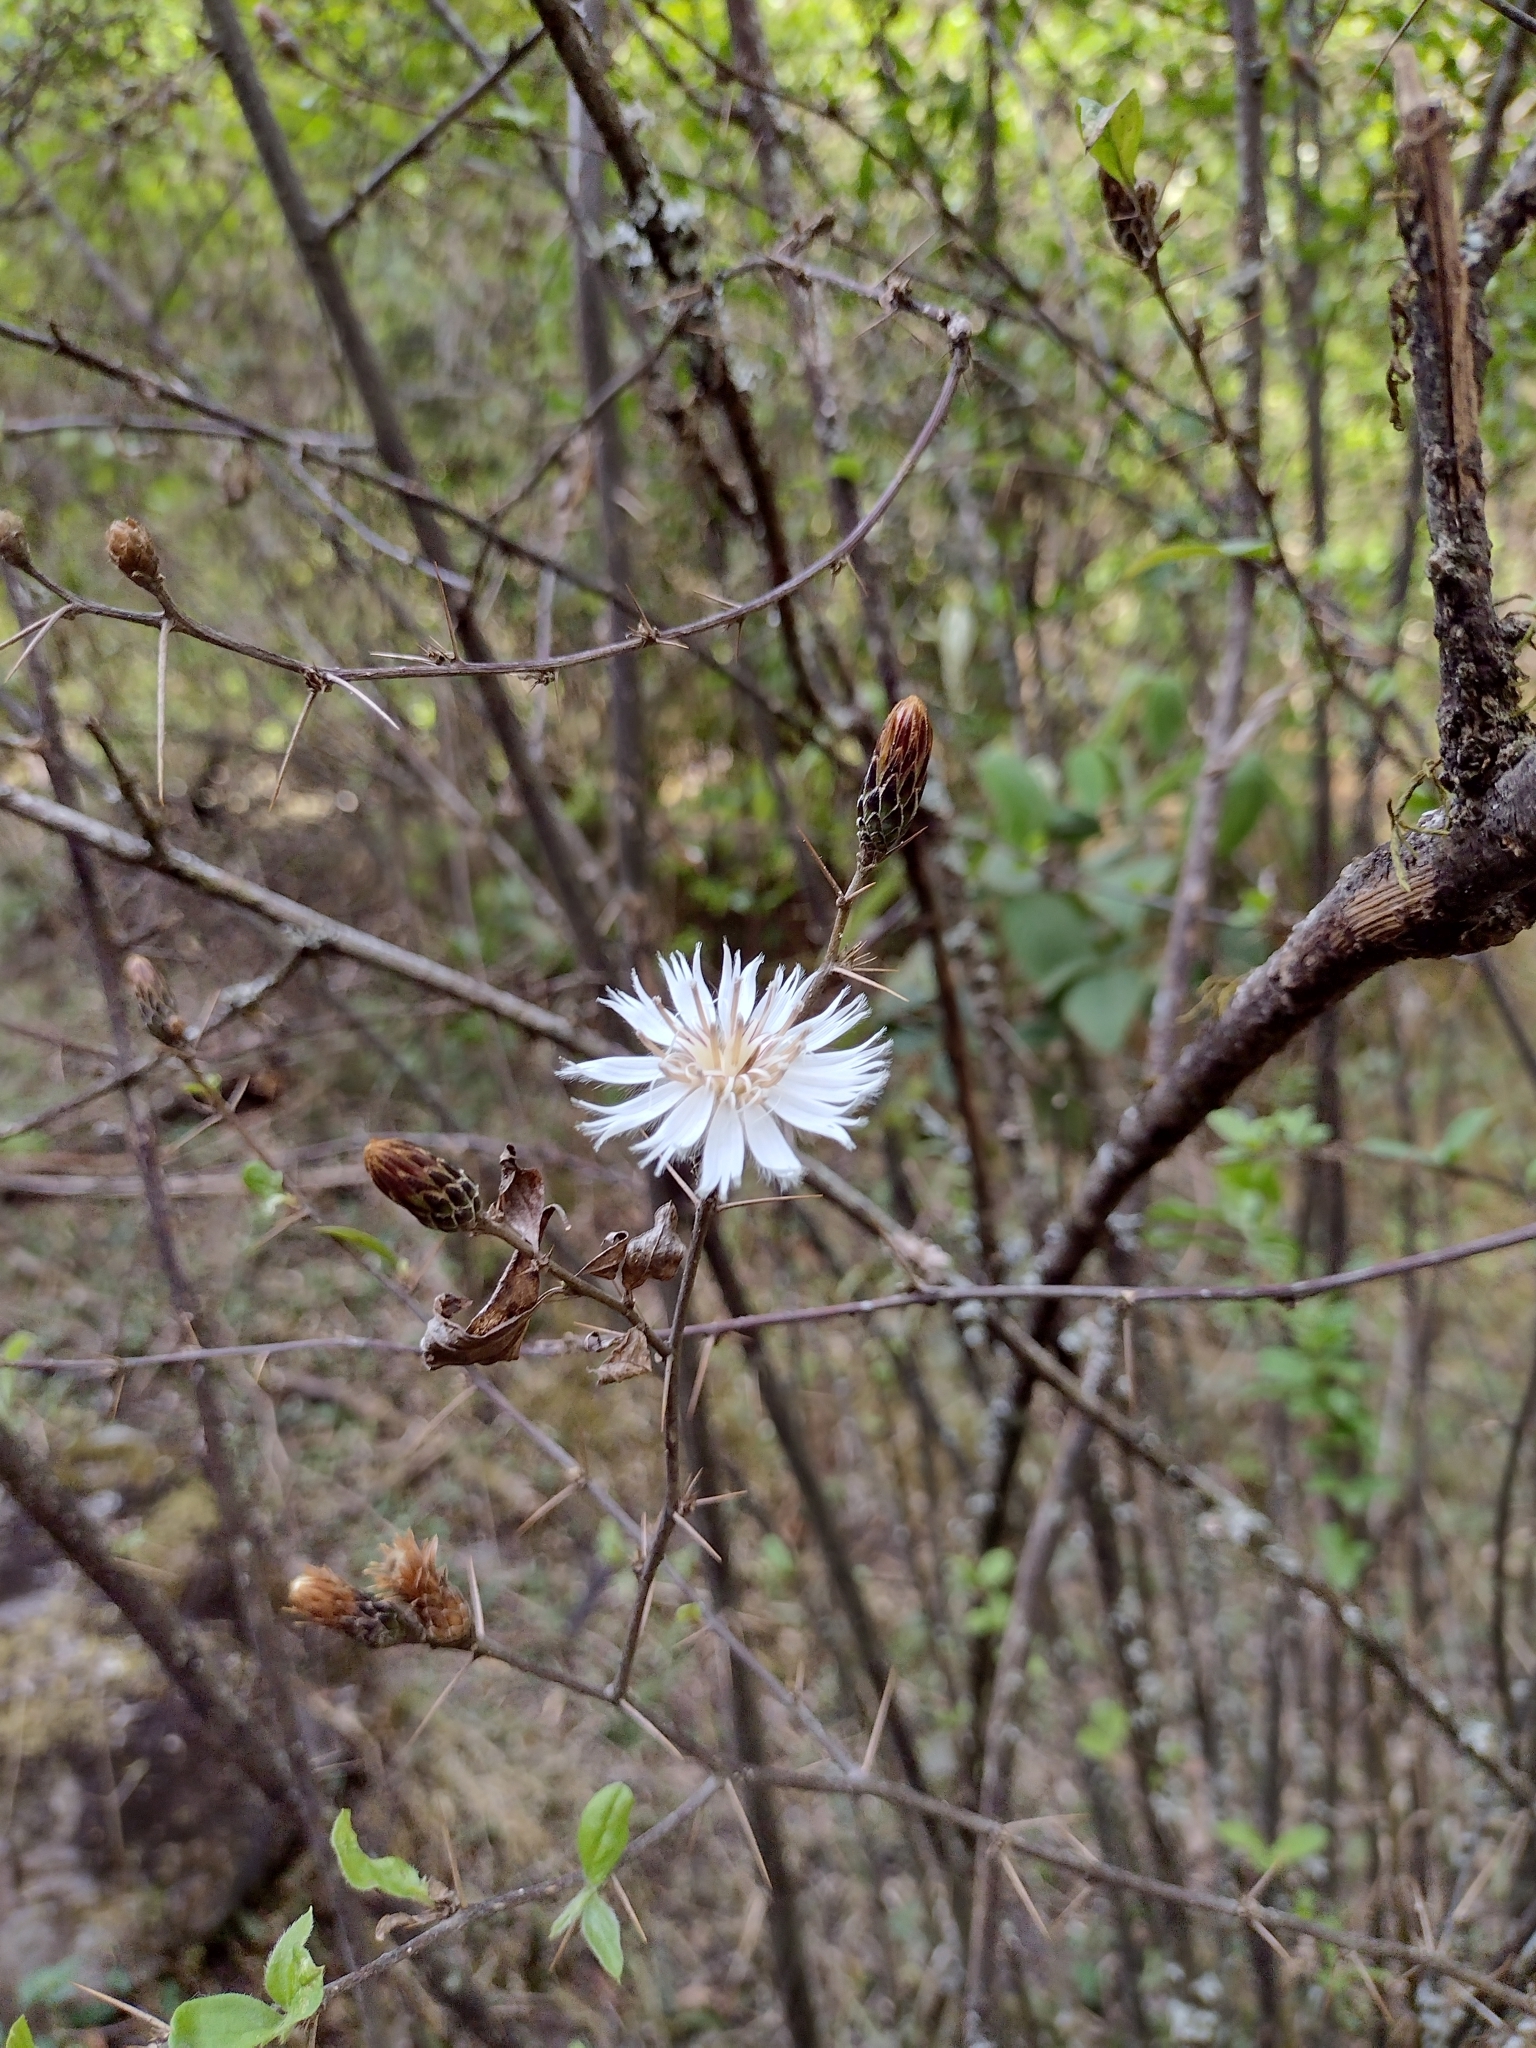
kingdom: Plantae
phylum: Tracheophyta
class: Magnoliopsida
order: Asterales
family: Asteraceae
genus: Barnadesia
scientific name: Barnadesia odorata
